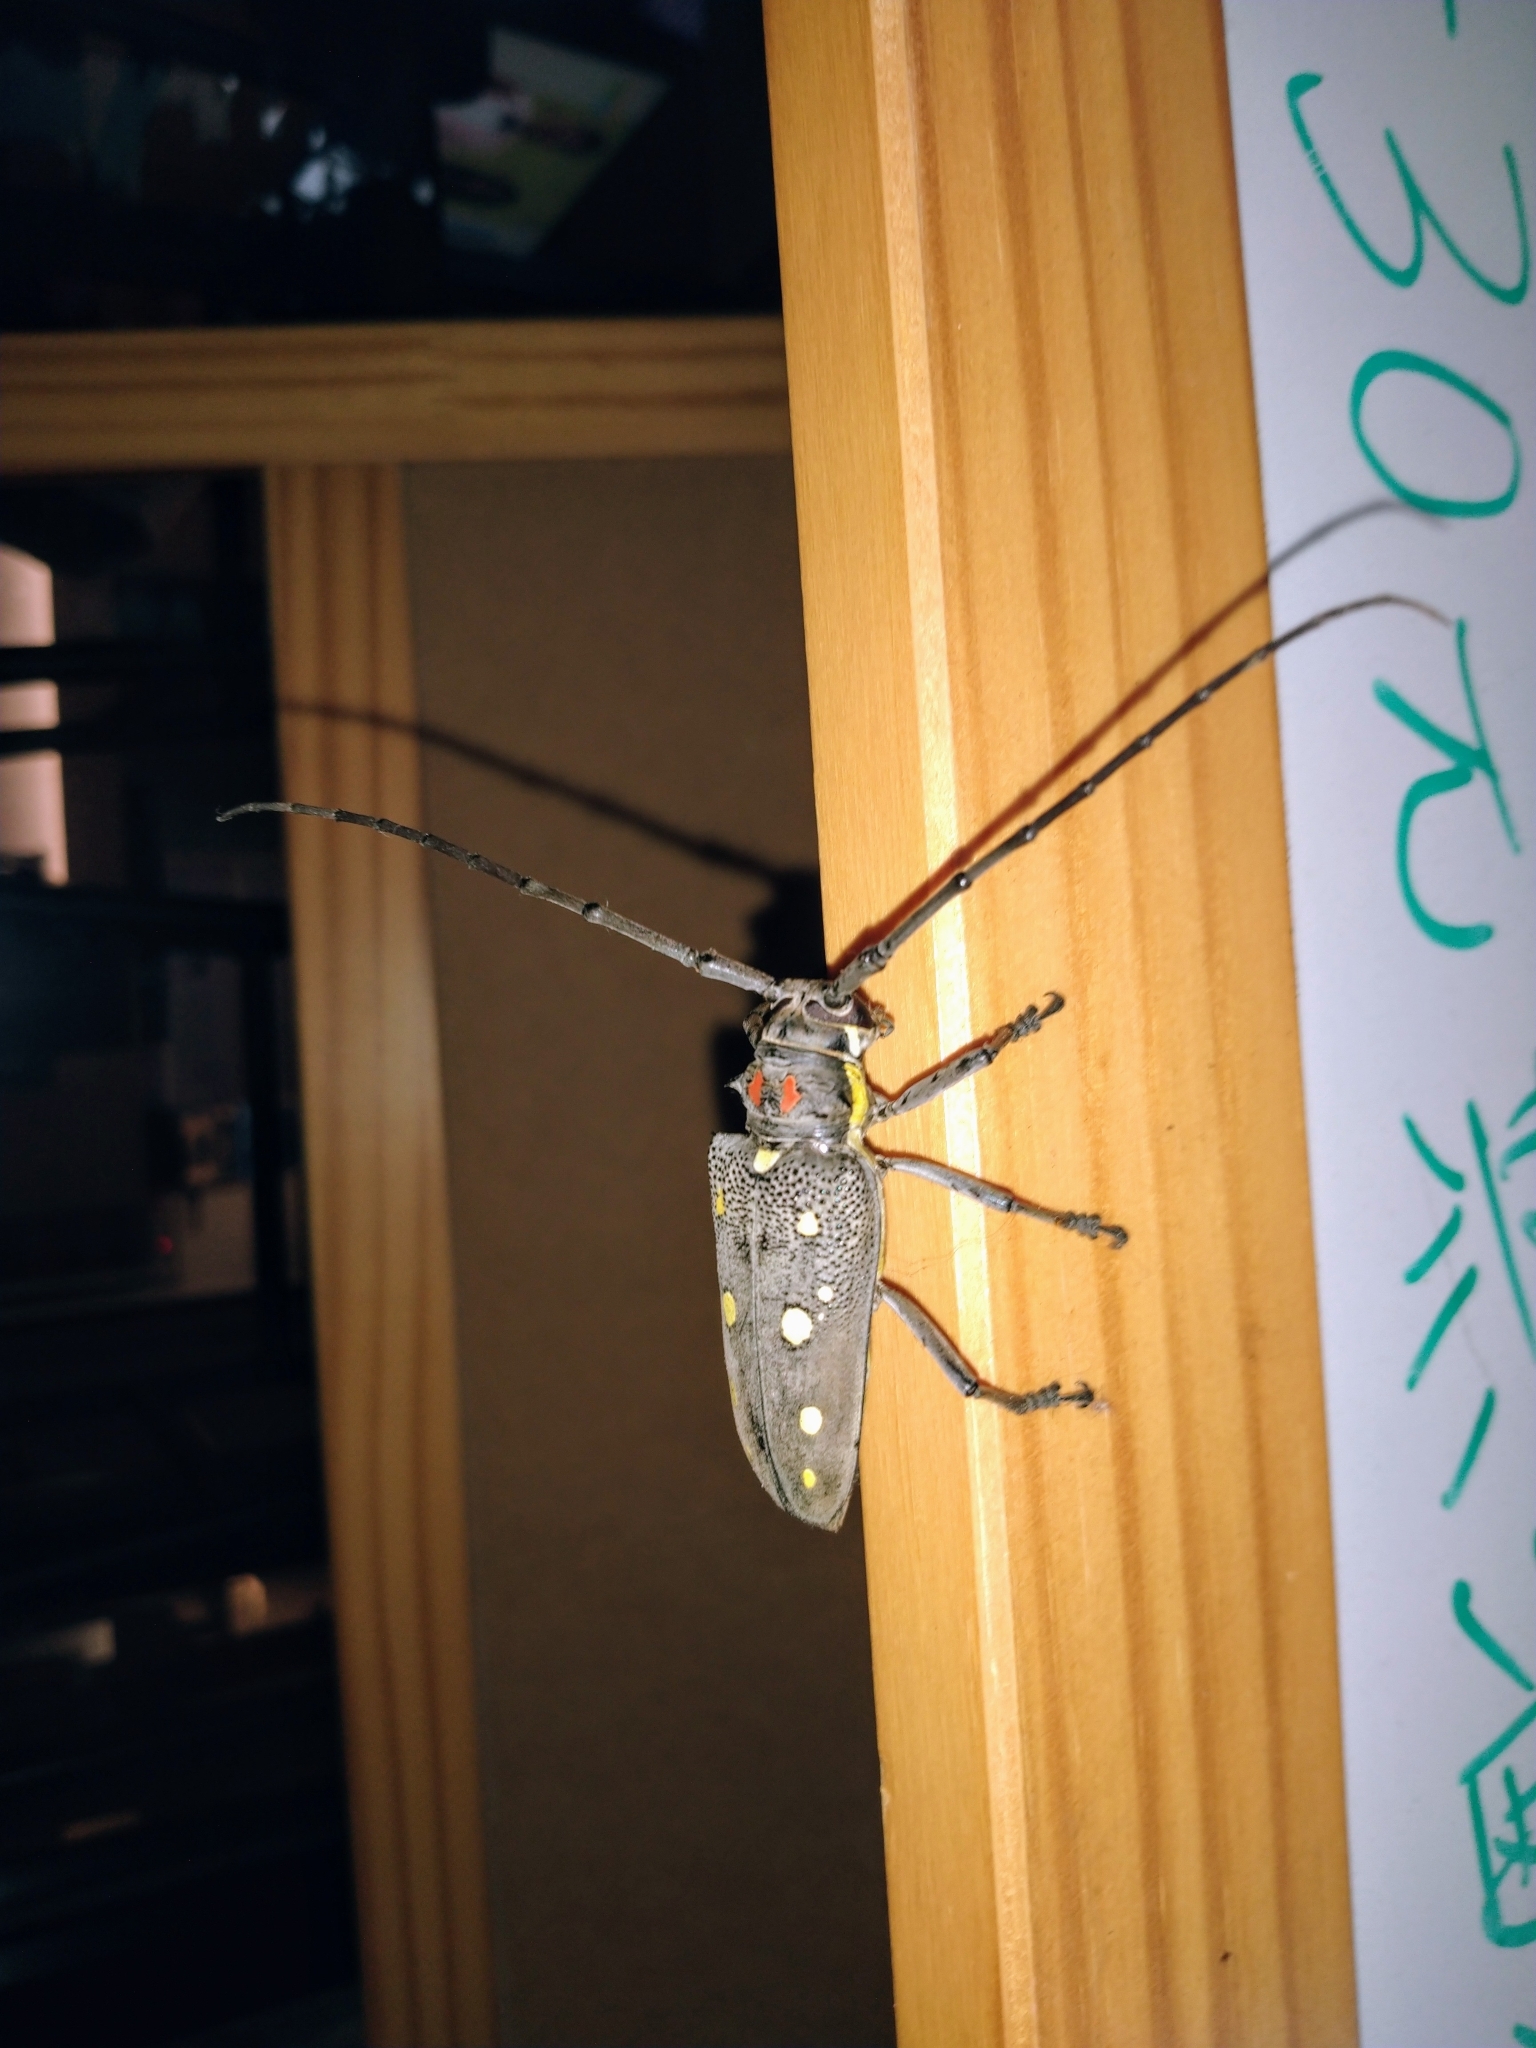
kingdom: Animalia
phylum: Arthropoda
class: Insecta
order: Coleoptera
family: Cerambycidae
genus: Batocera
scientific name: Batocera rubus
